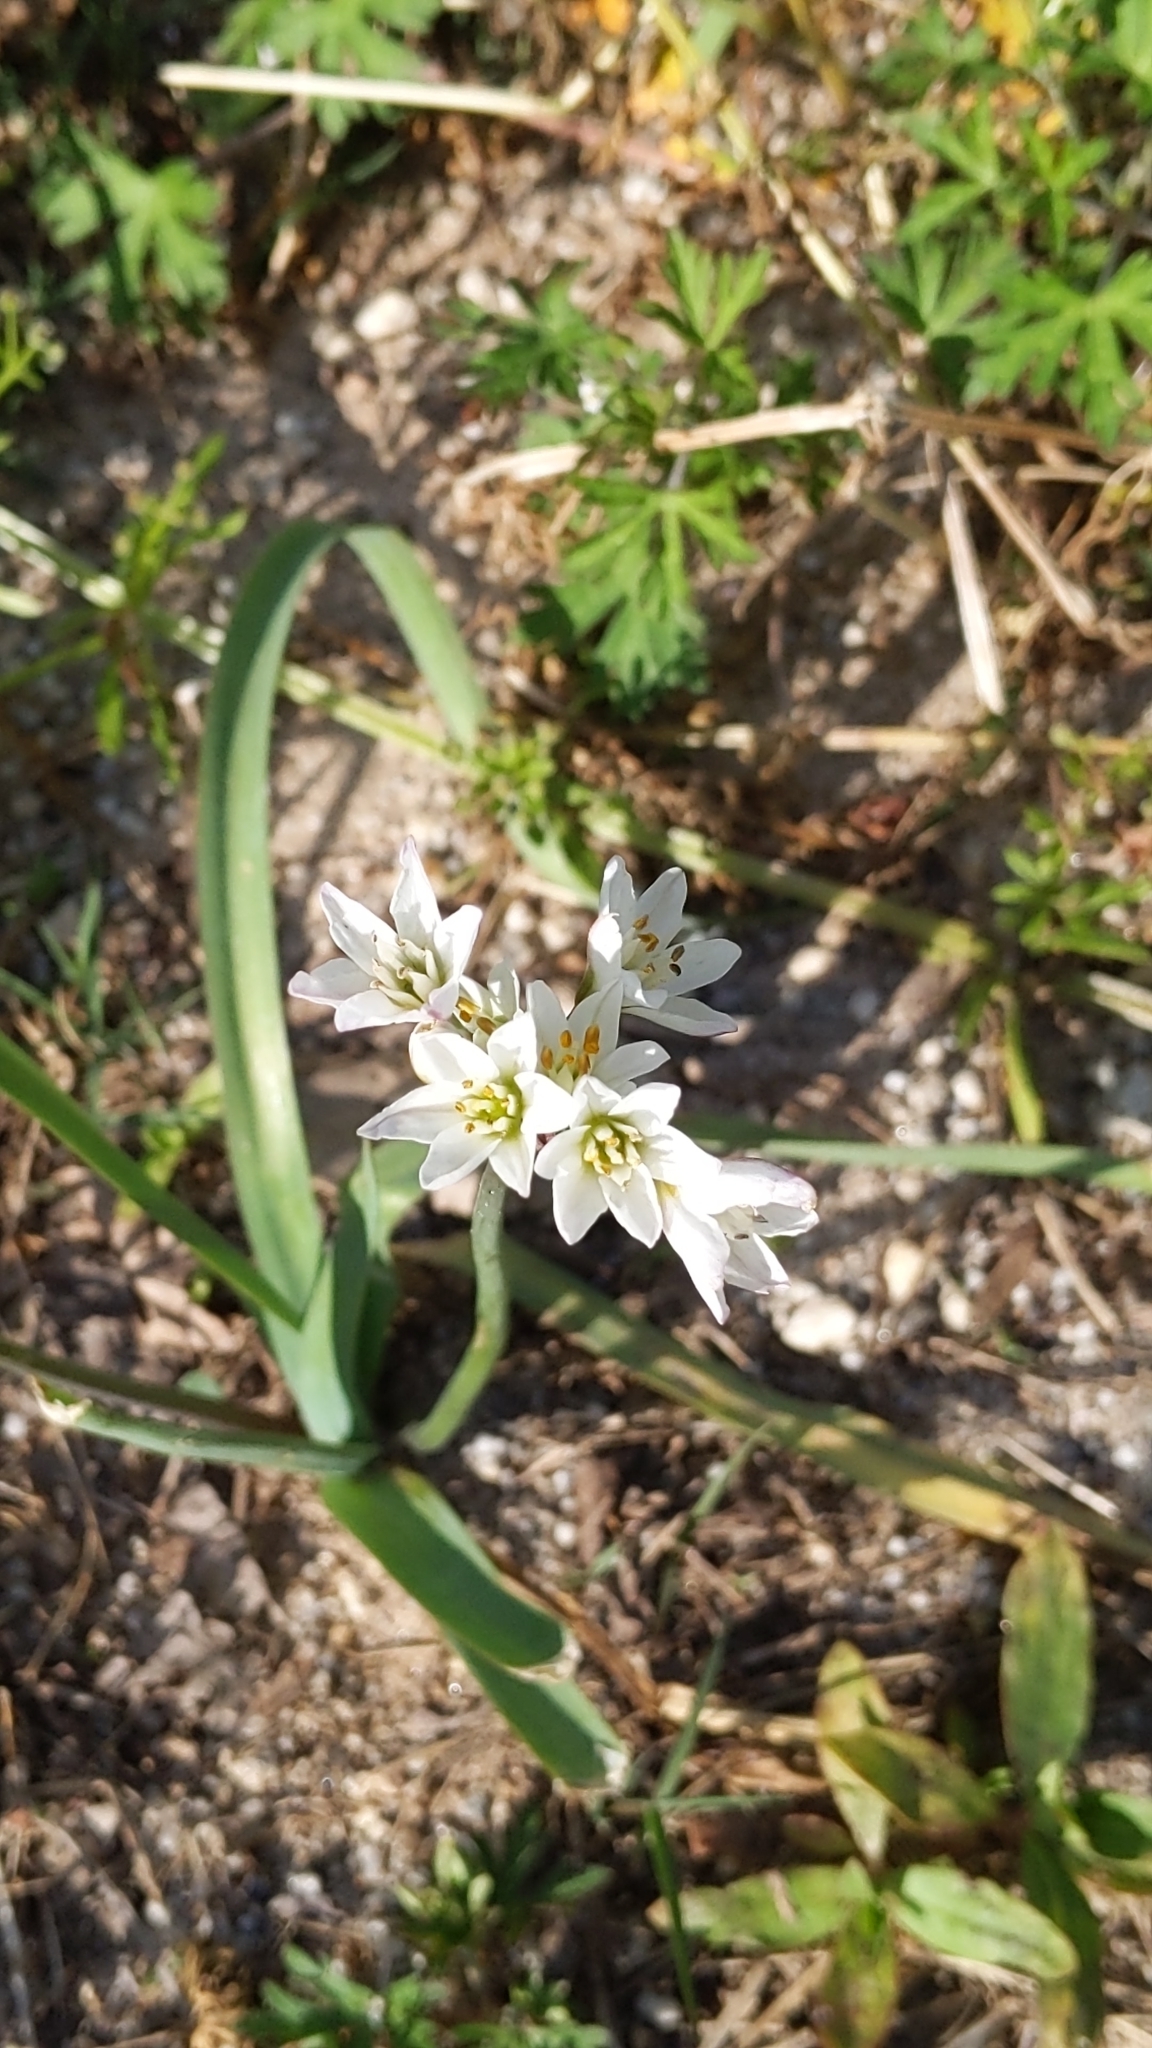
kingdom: Plantae
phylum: Tracheophyta
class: Liliopsida
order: Asparagales
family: Amaryllidaceae
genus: Nothoscordum
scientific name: Nothoscordum bivalve
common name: Crow-poison
